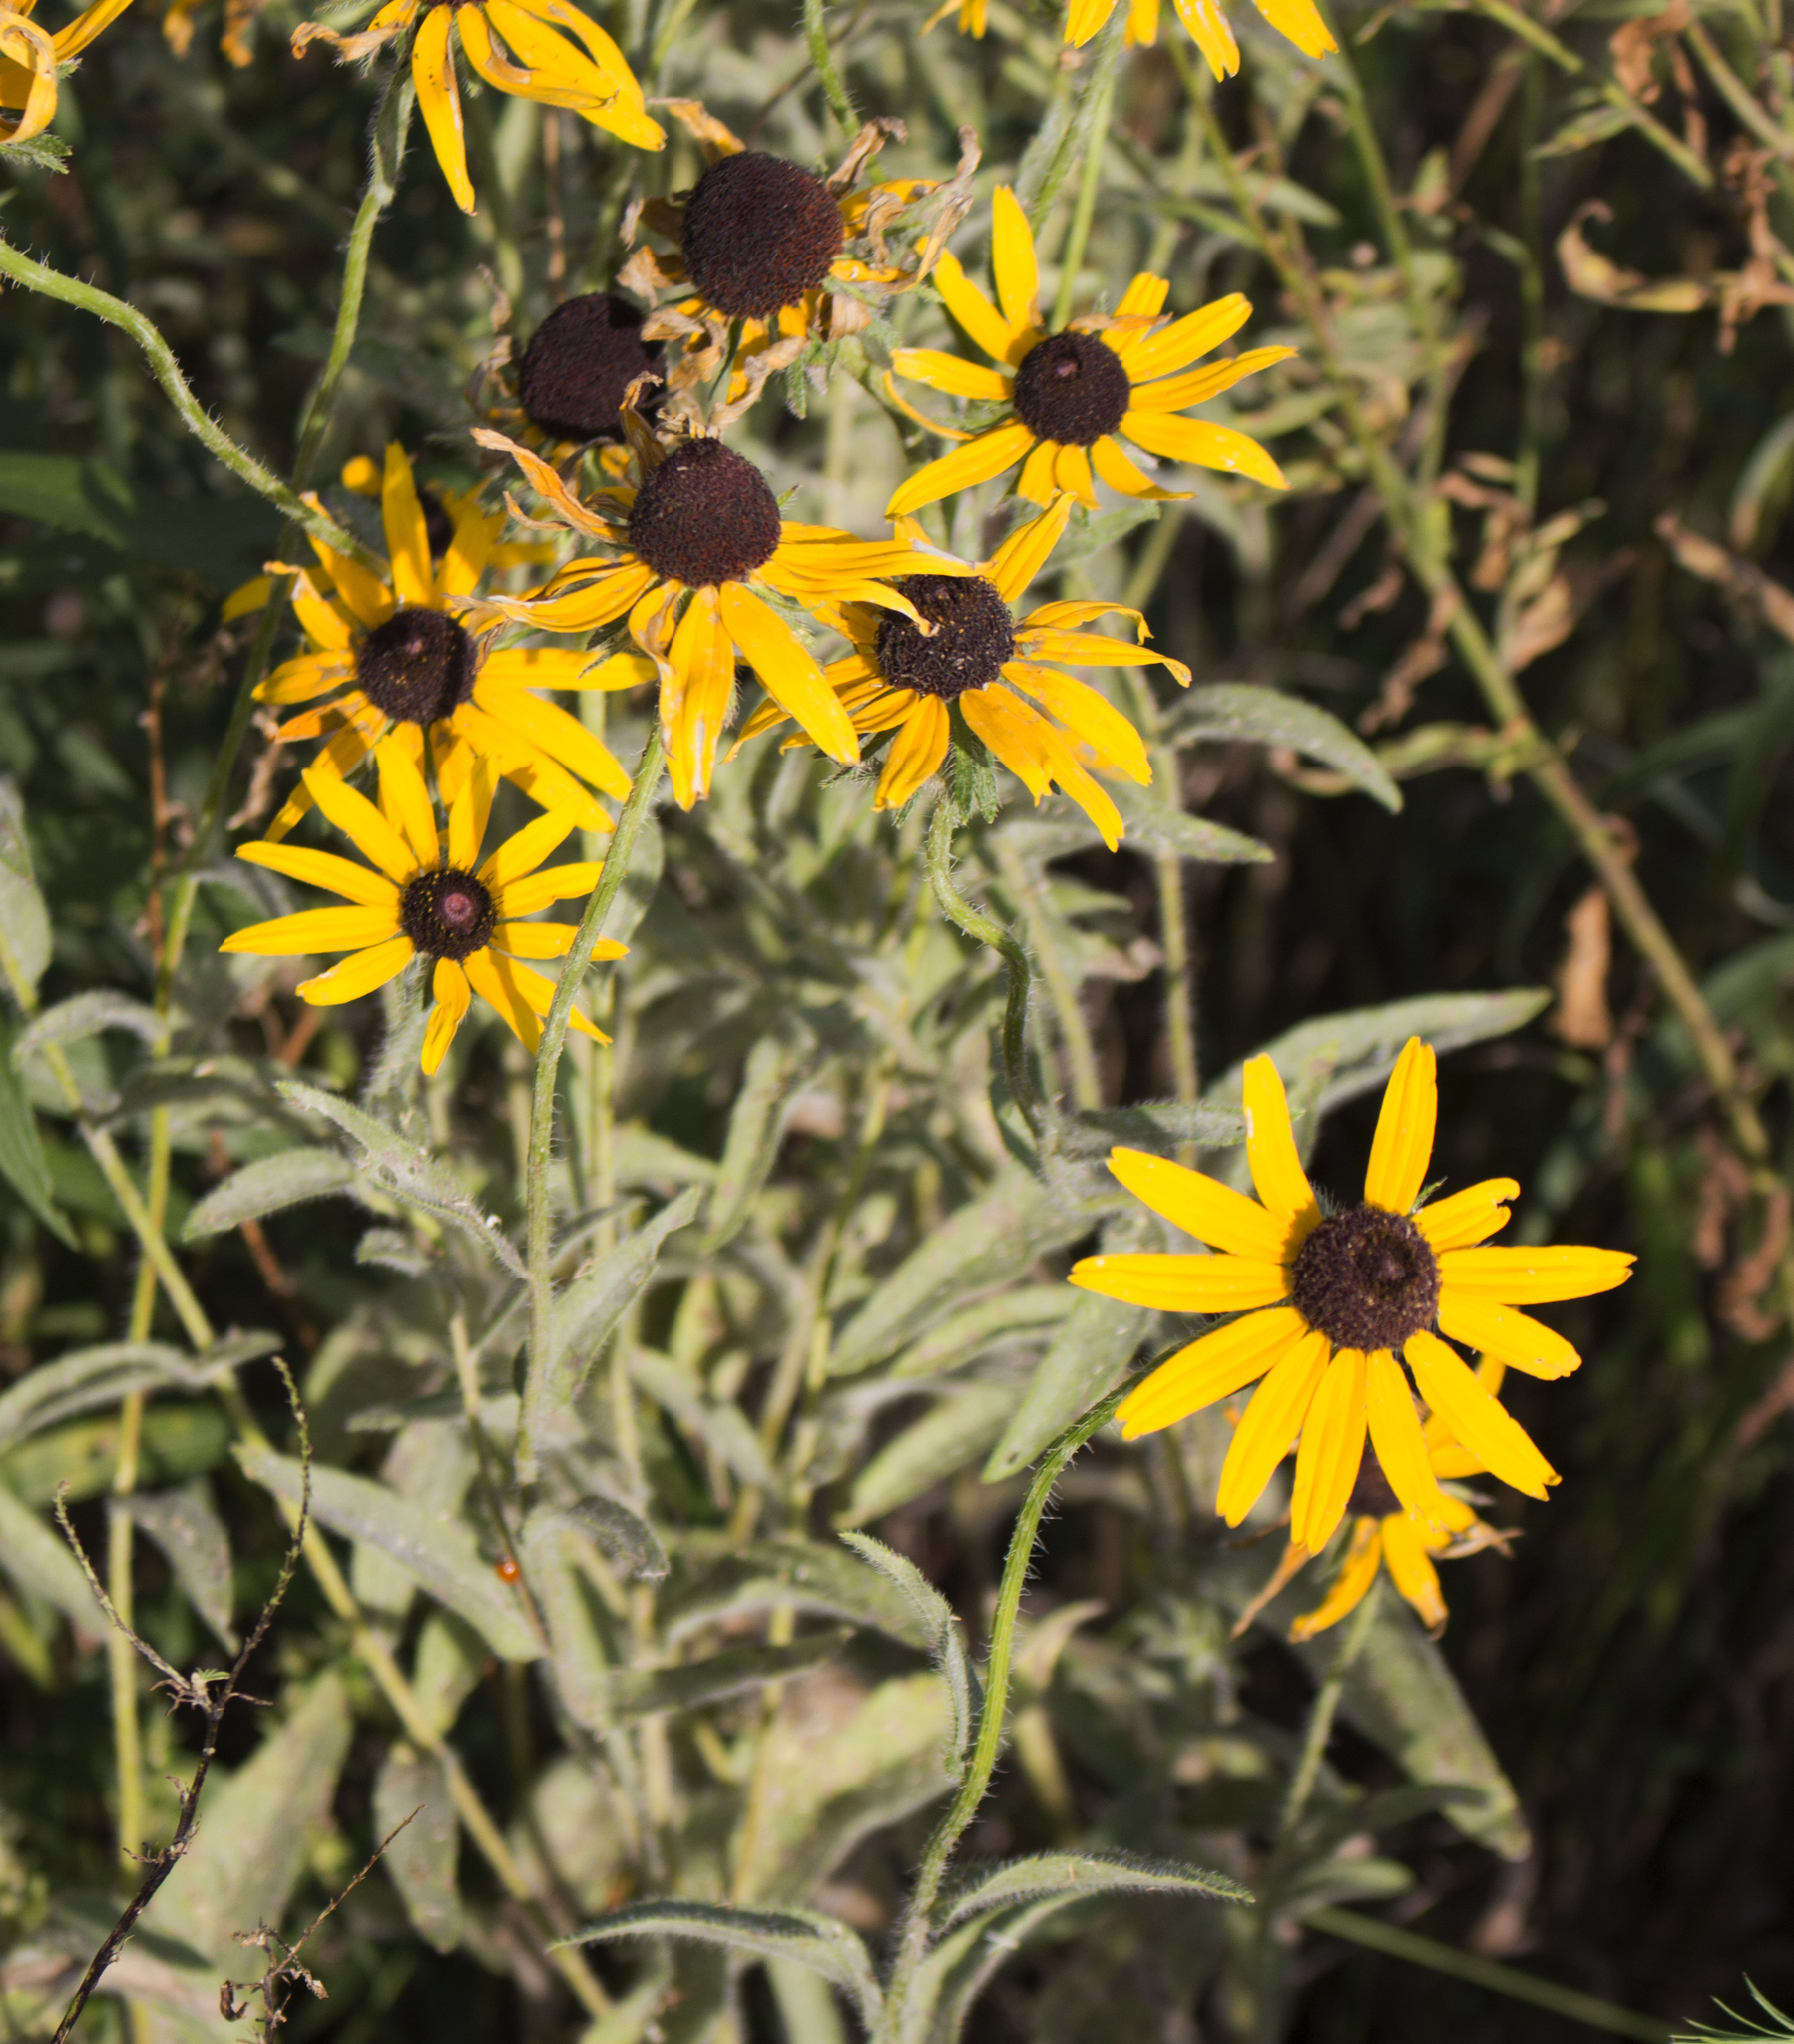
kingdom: Plantae
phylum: Tracheophyta
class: Magnoliopsida
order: Asterales
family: Asteraceae
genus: Rudbeckia
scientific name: Rudbeckia hirta
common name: Black-eyed-susan
